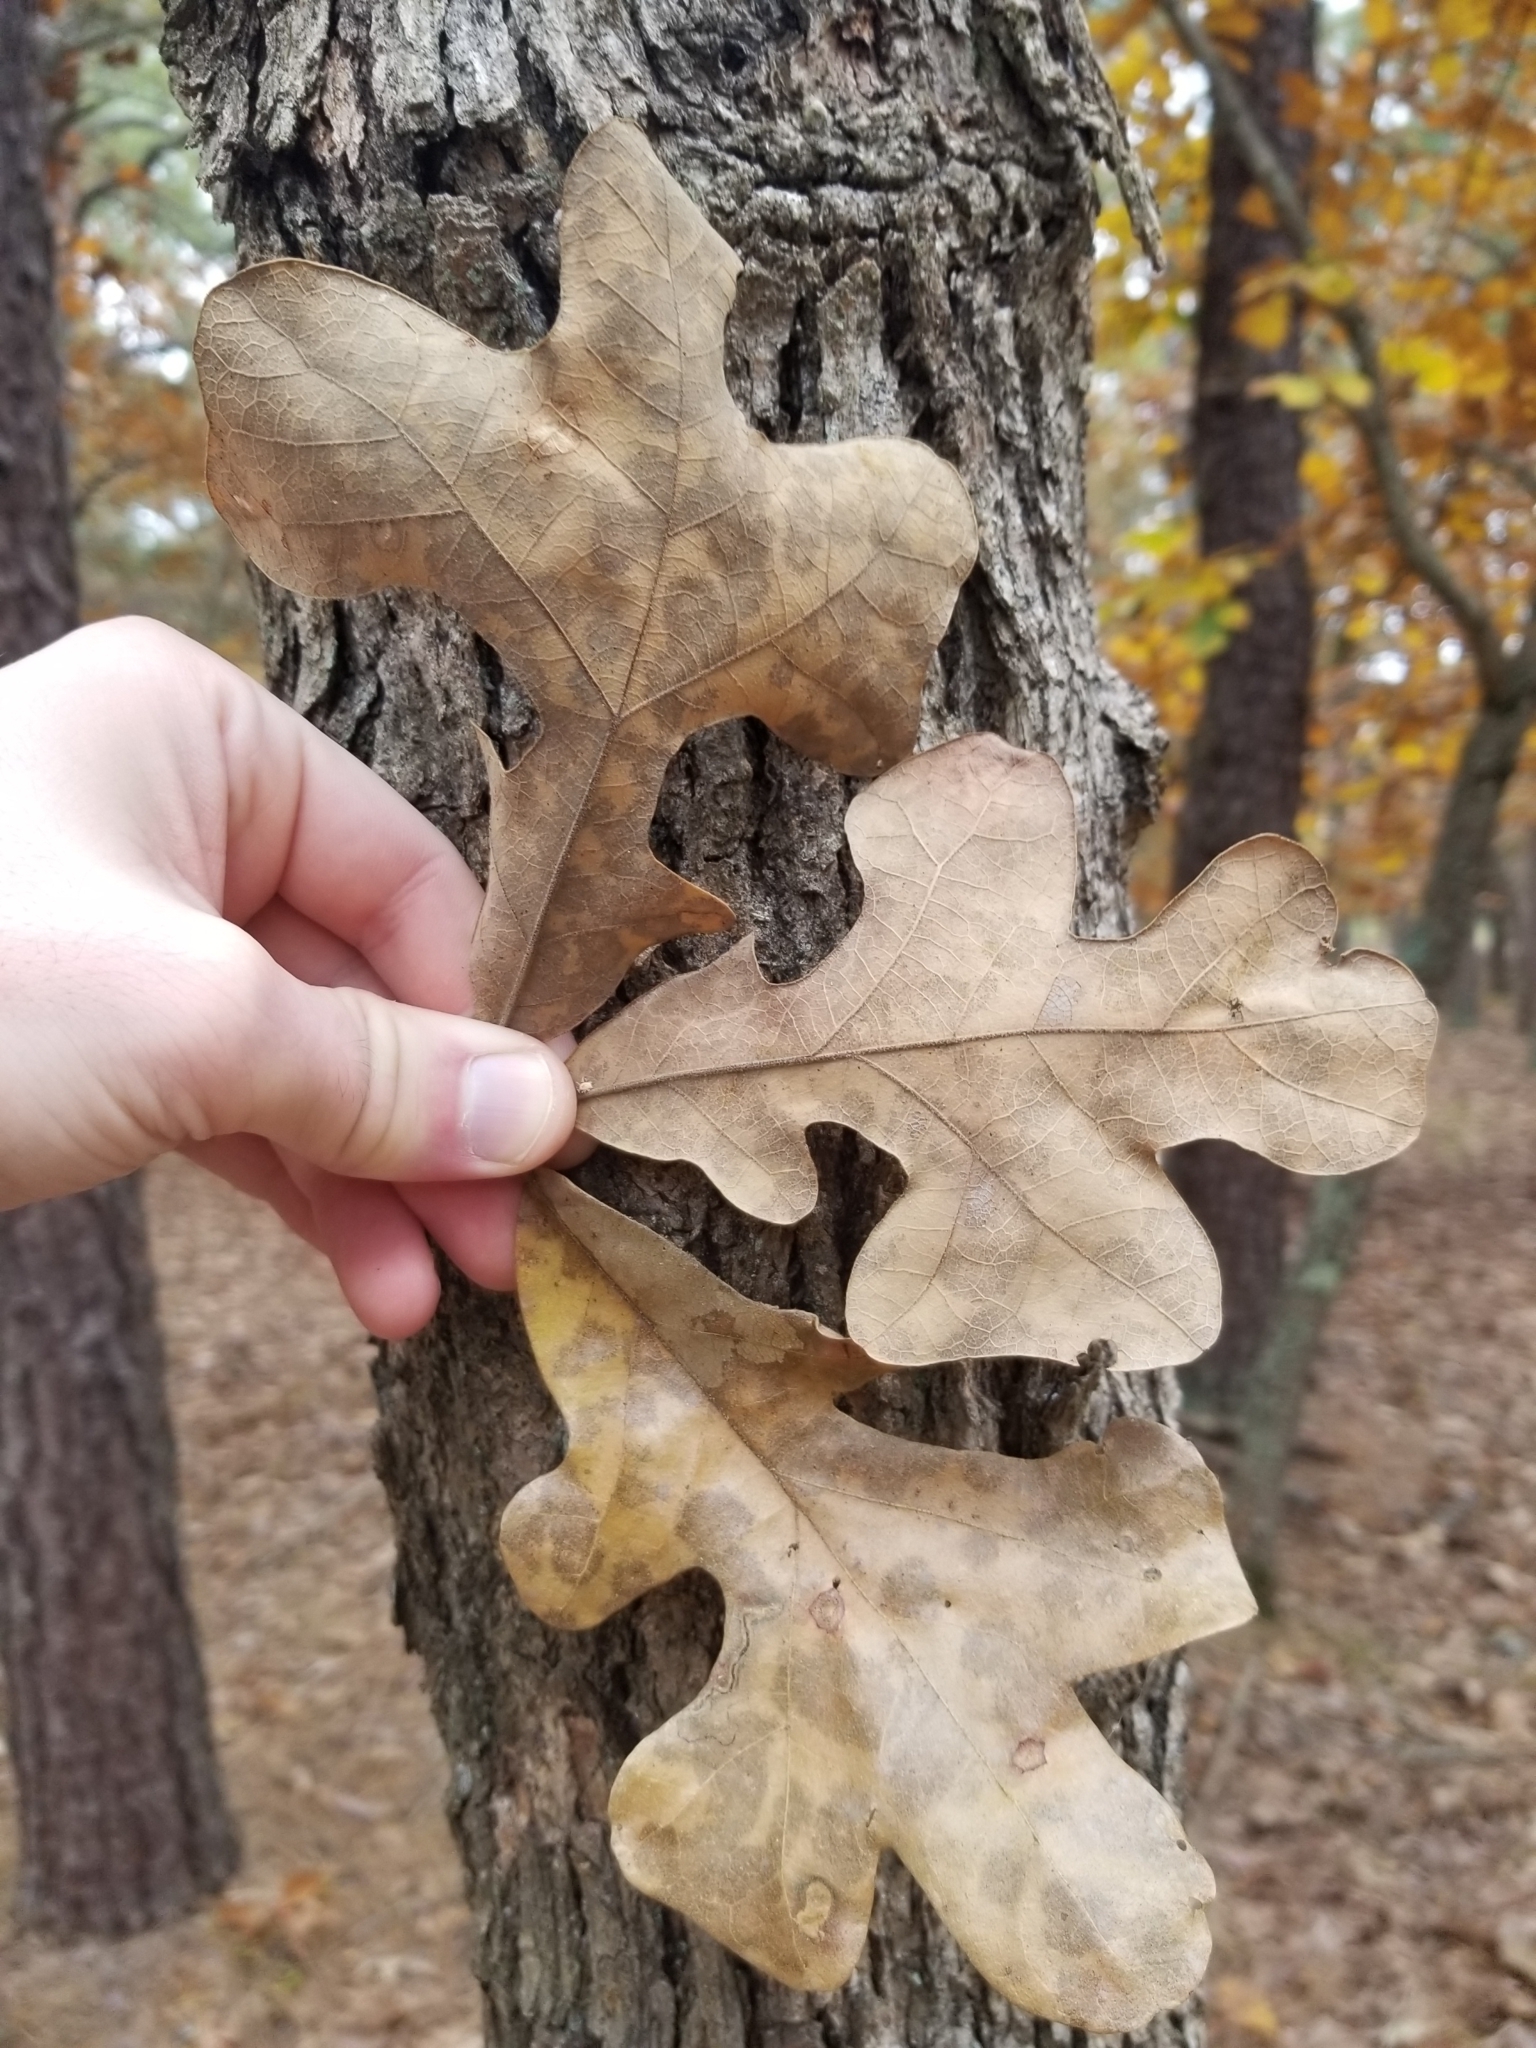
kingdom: Plantae
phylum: Tracheophyta
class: Magnoliopsida
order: Fagales
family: Fagaceae
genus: Quercus
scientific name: Quercus stellata
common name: Post oak
